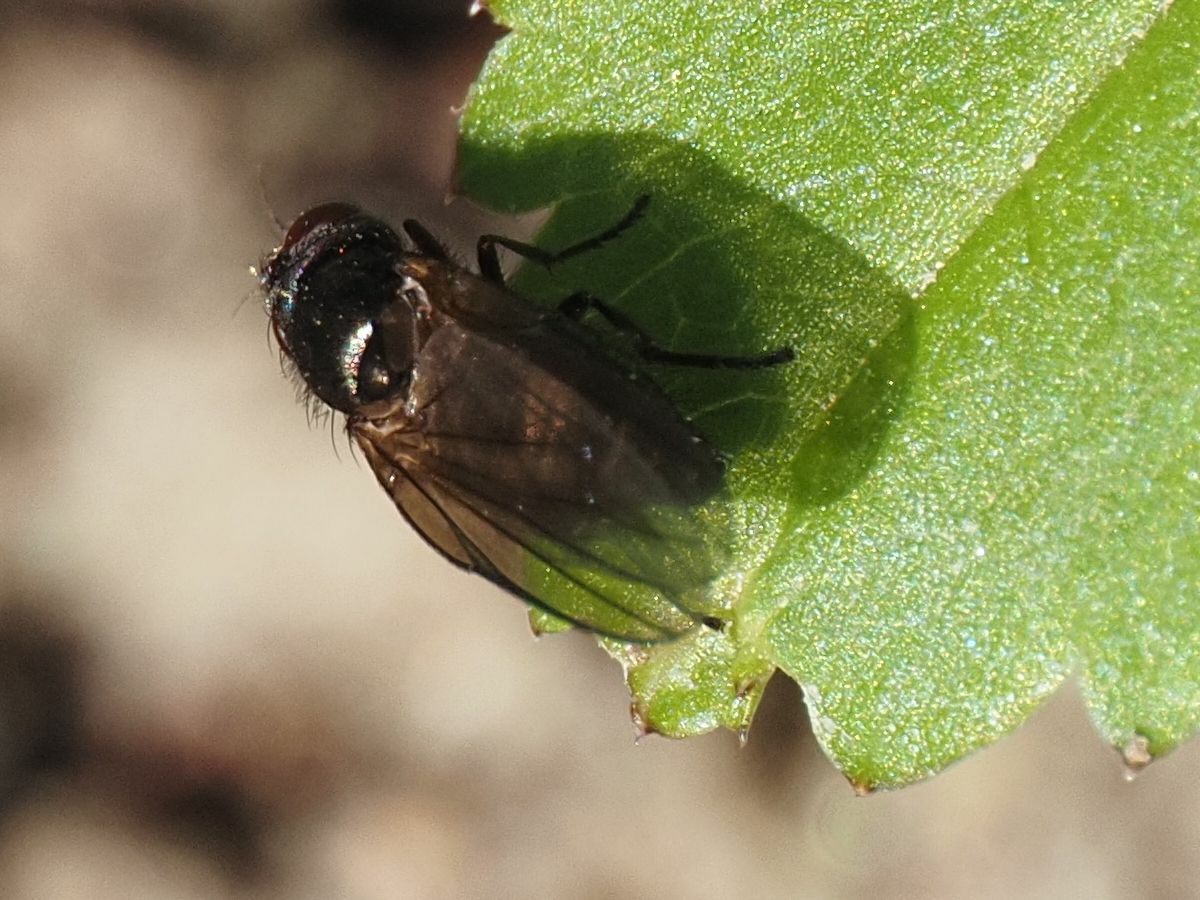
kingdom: Animalia
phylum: Arthropoda
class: Insecta
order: Diptera
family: Lonchaeidae
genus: Earomyia
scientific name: Earomyia lonchaeoides
